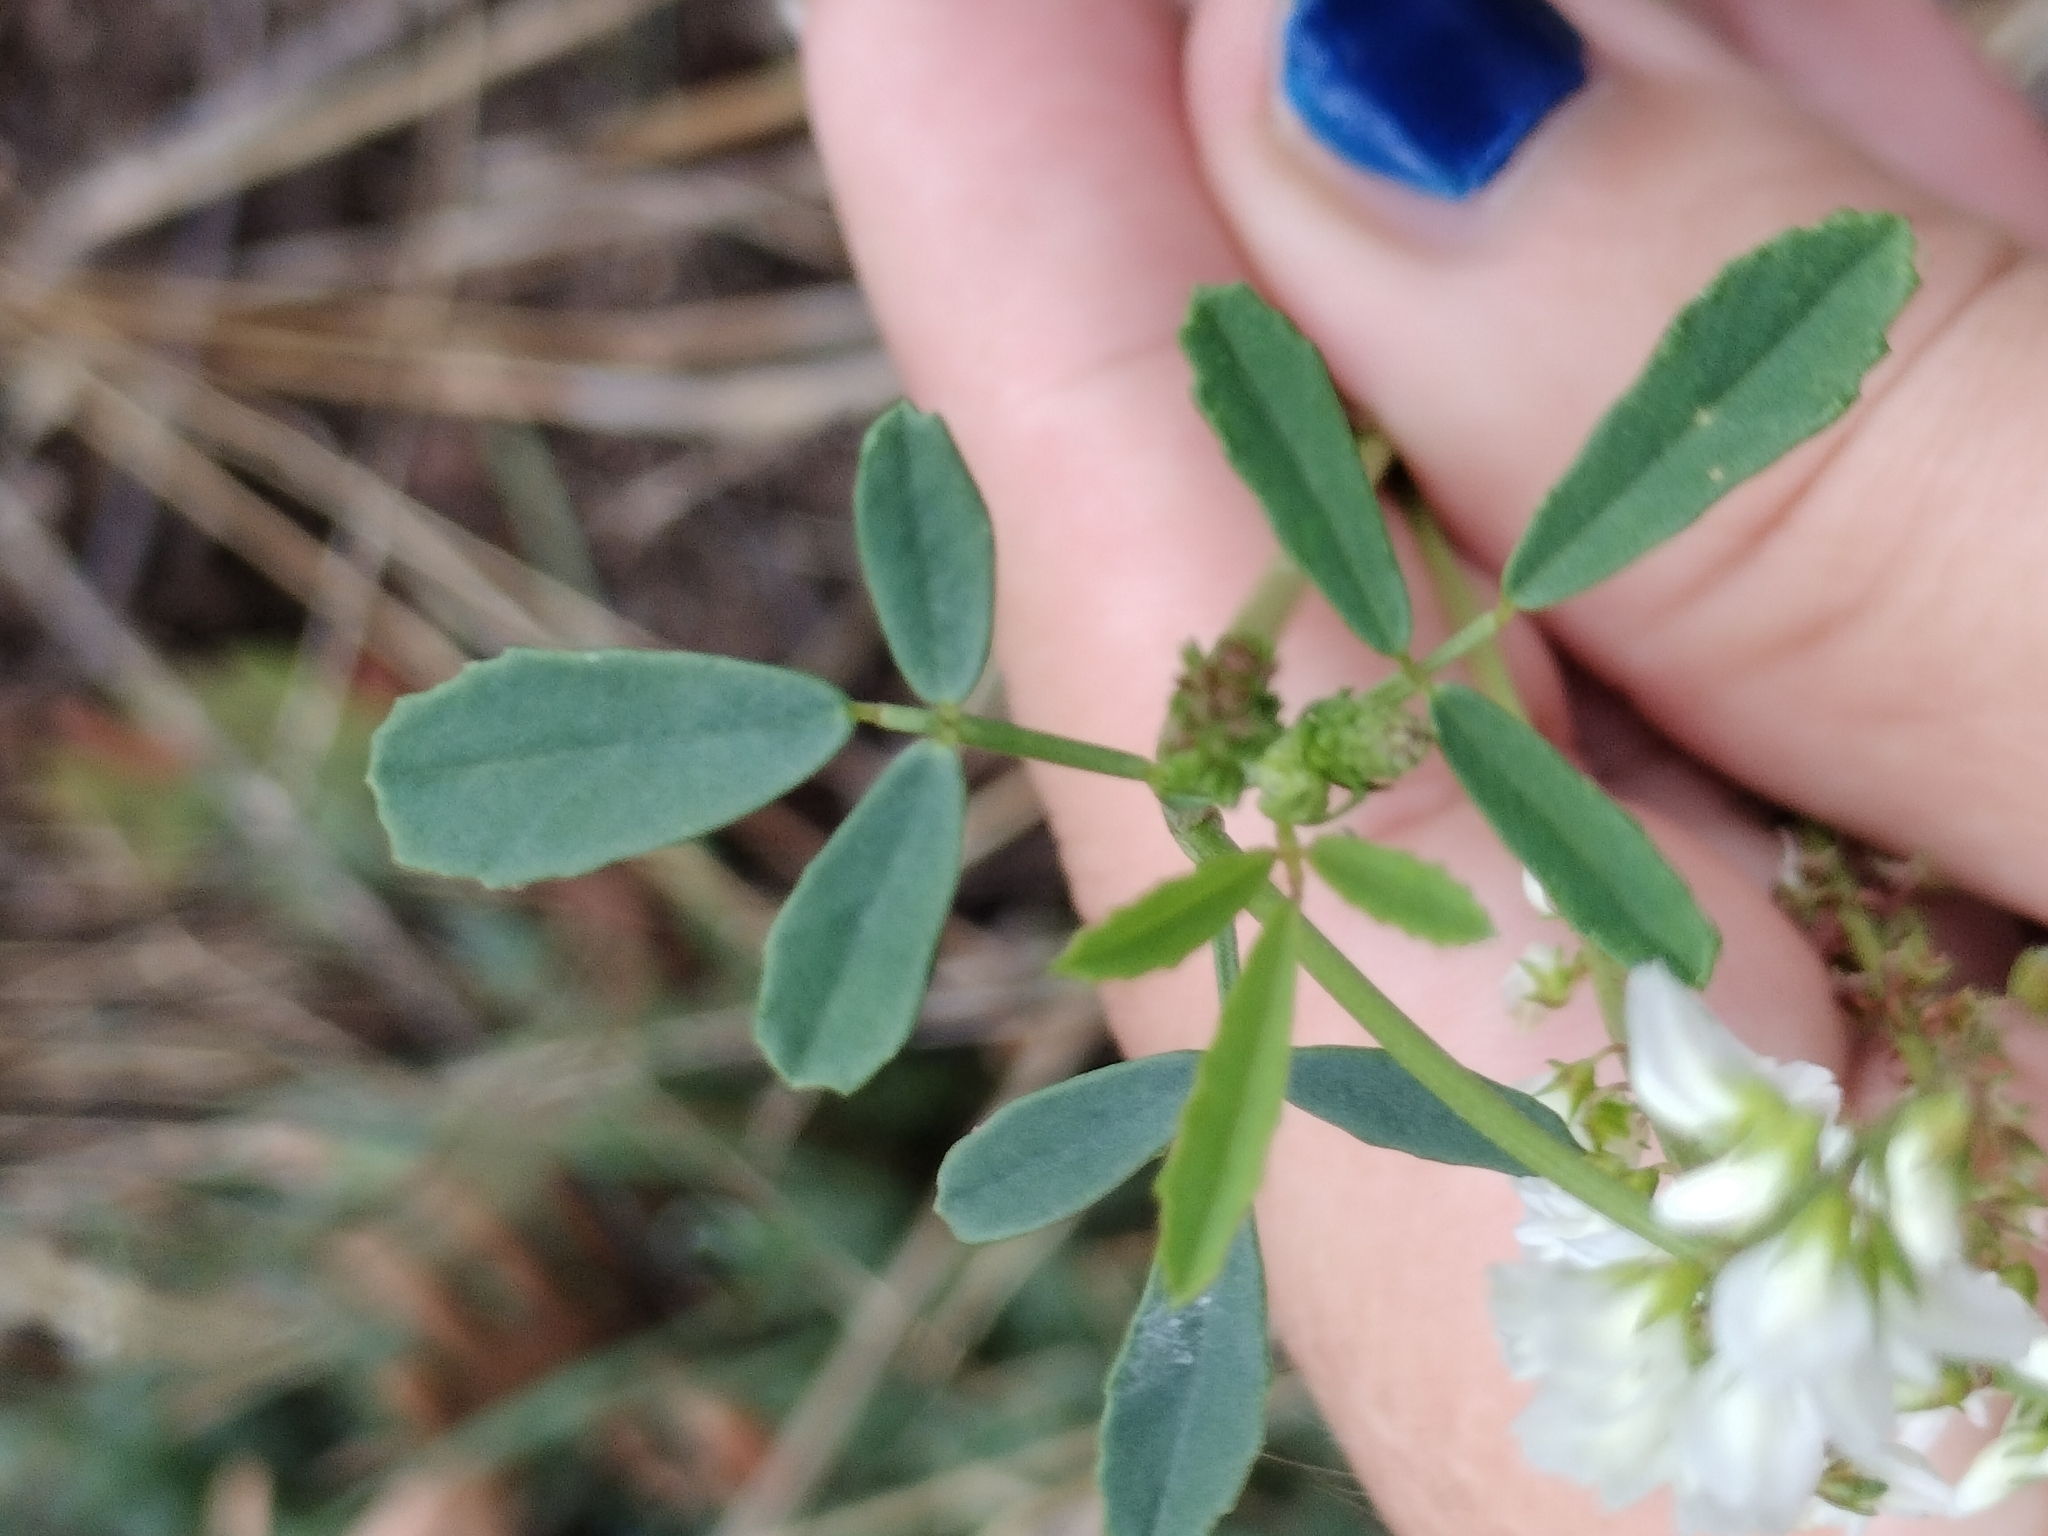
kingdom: Plantae
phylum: Tracheophyta
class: Magnoliopsida
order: Fabales
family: Fabaceae
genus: Melilotus
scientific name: Melilotus albus
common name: White melilot
